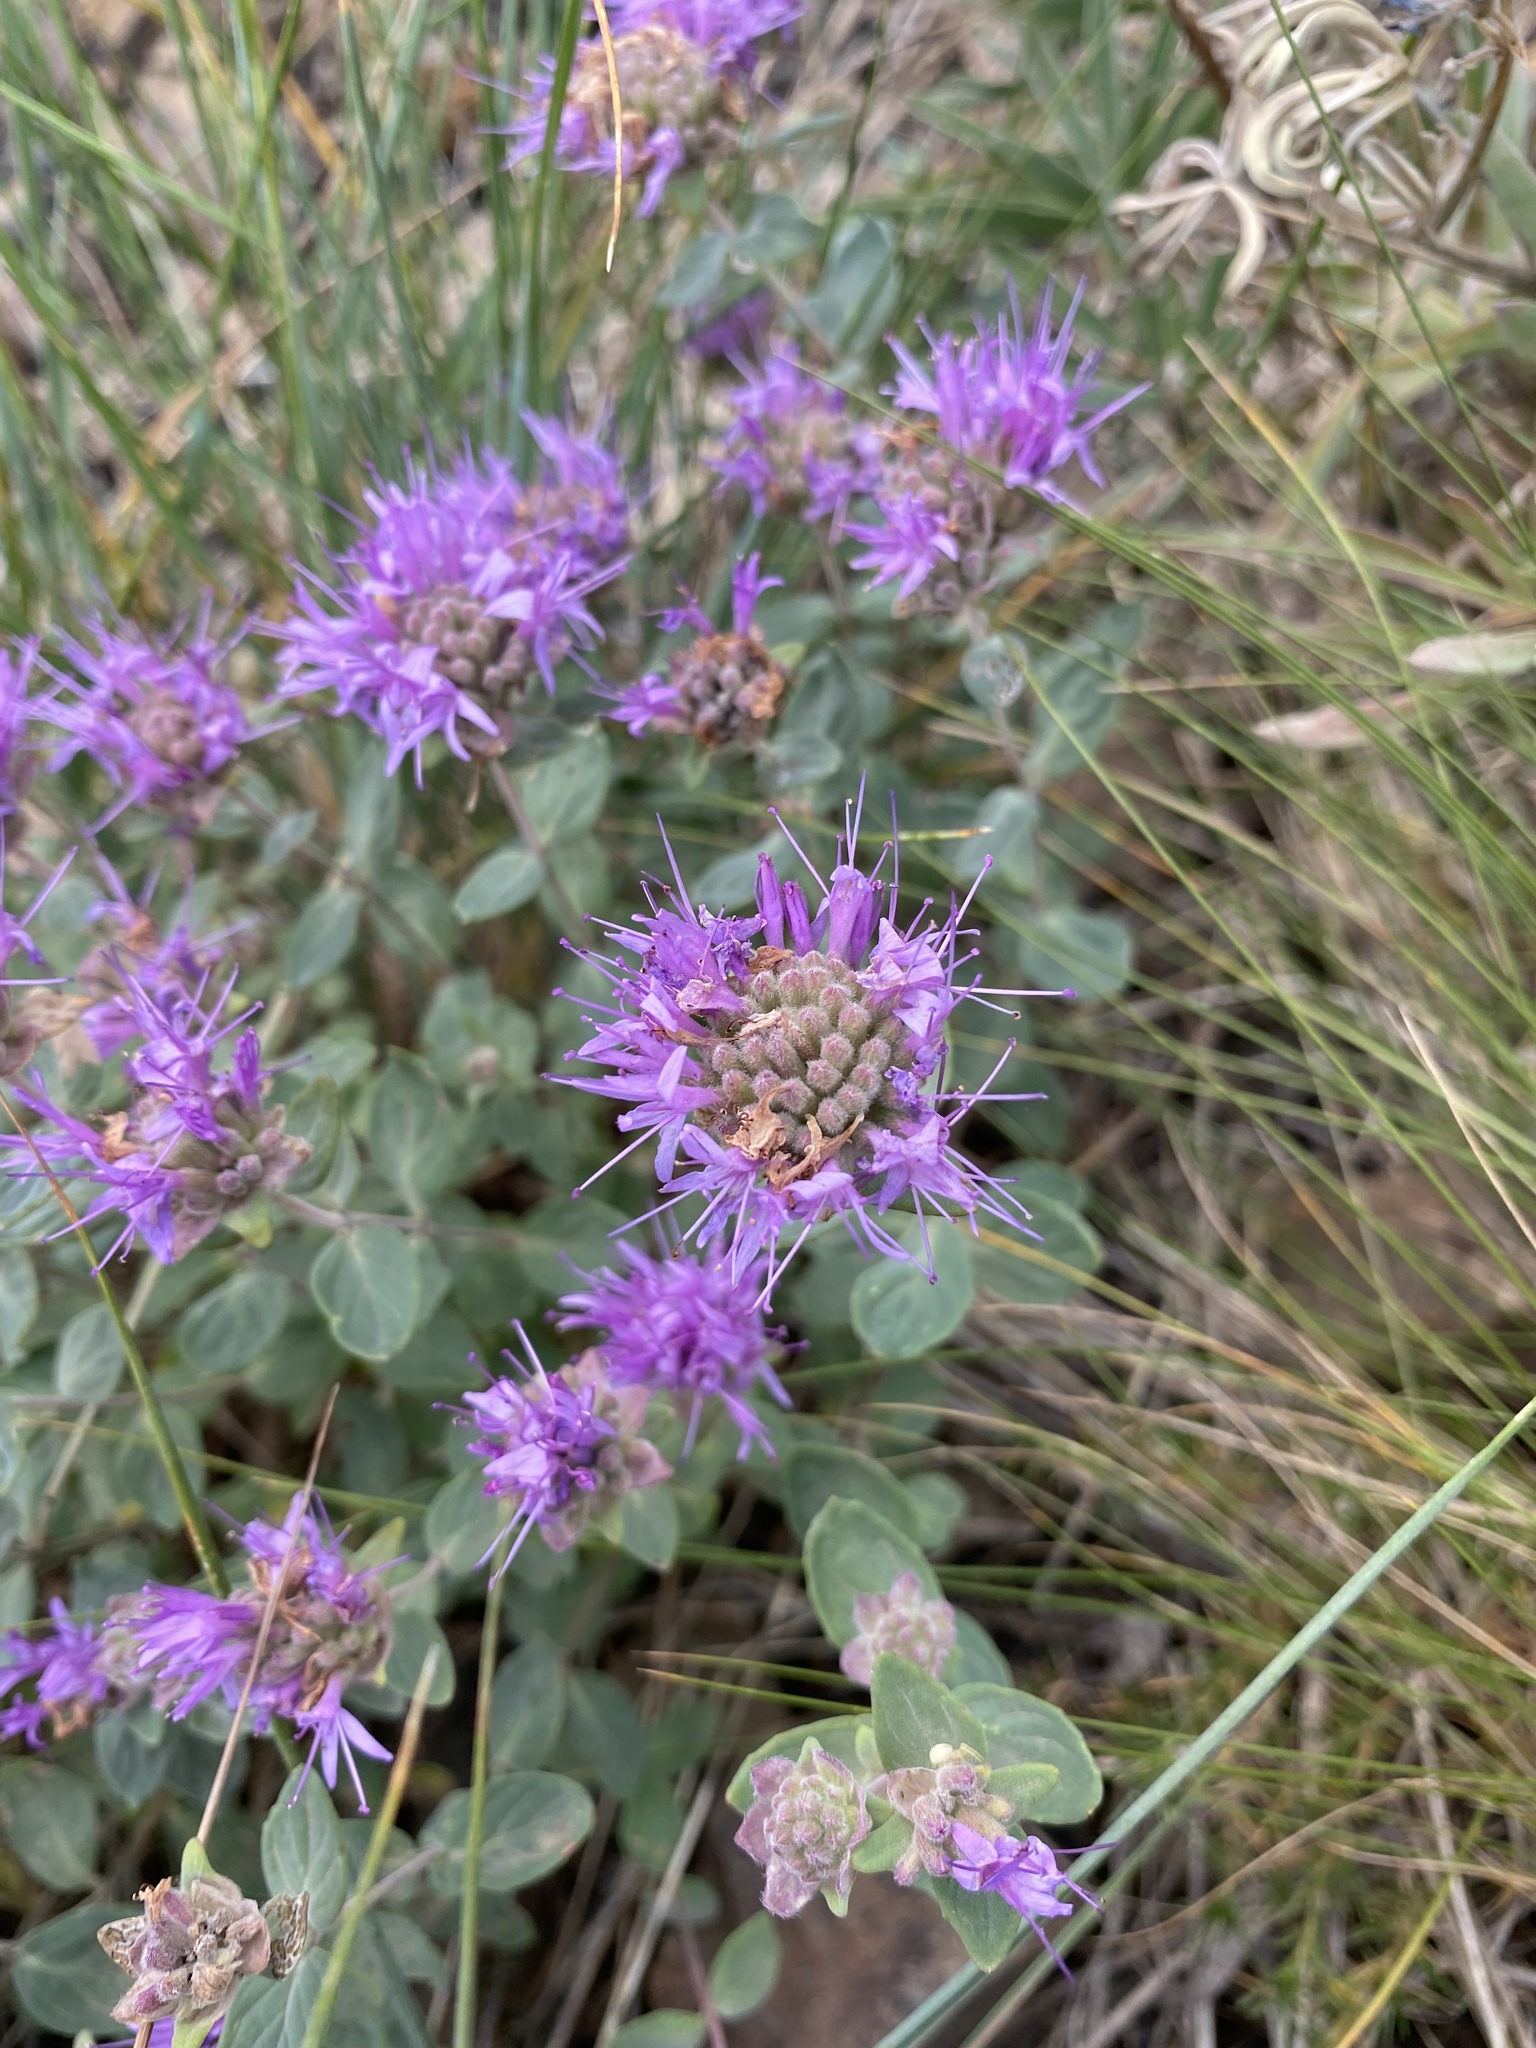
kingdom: Plantae
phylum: Tracheophyta
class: Magnoliopsida
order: Lamiales
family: Lamiaceae
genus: Monardella
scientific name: Monardella odoratissima
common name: Pacific monardella
